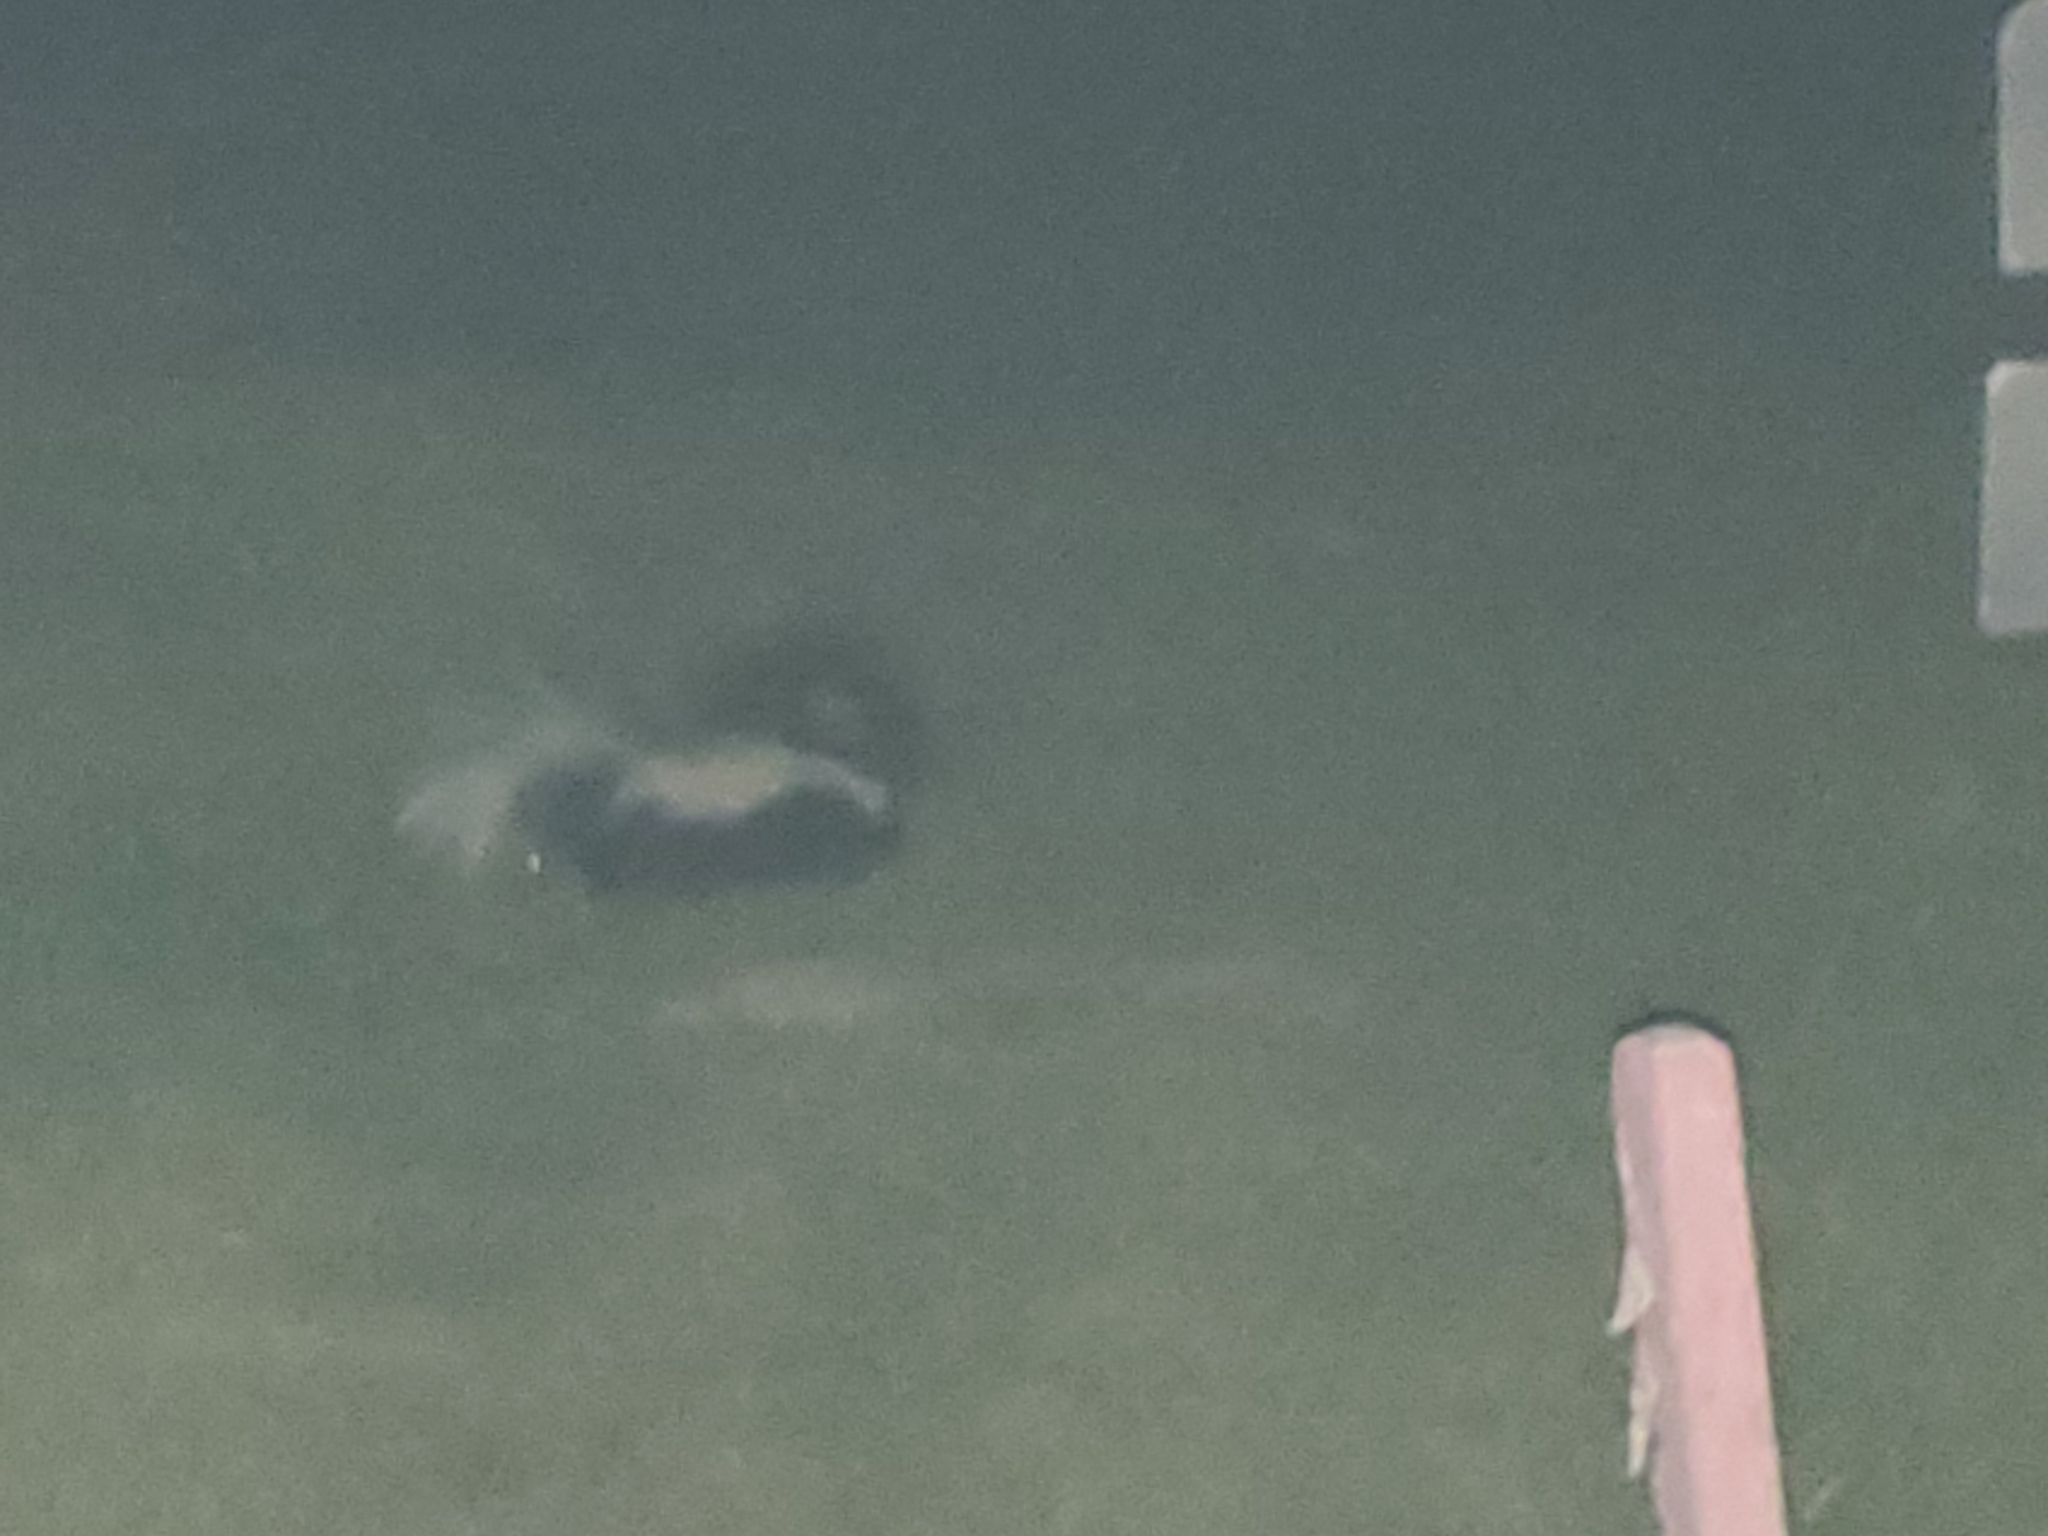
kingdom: Animalia
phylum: Chordata
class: Mammalia
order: Carnivora
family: Mephitidae
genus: Mephitis
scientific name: Mephitis mephitis
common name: Striped skunk
